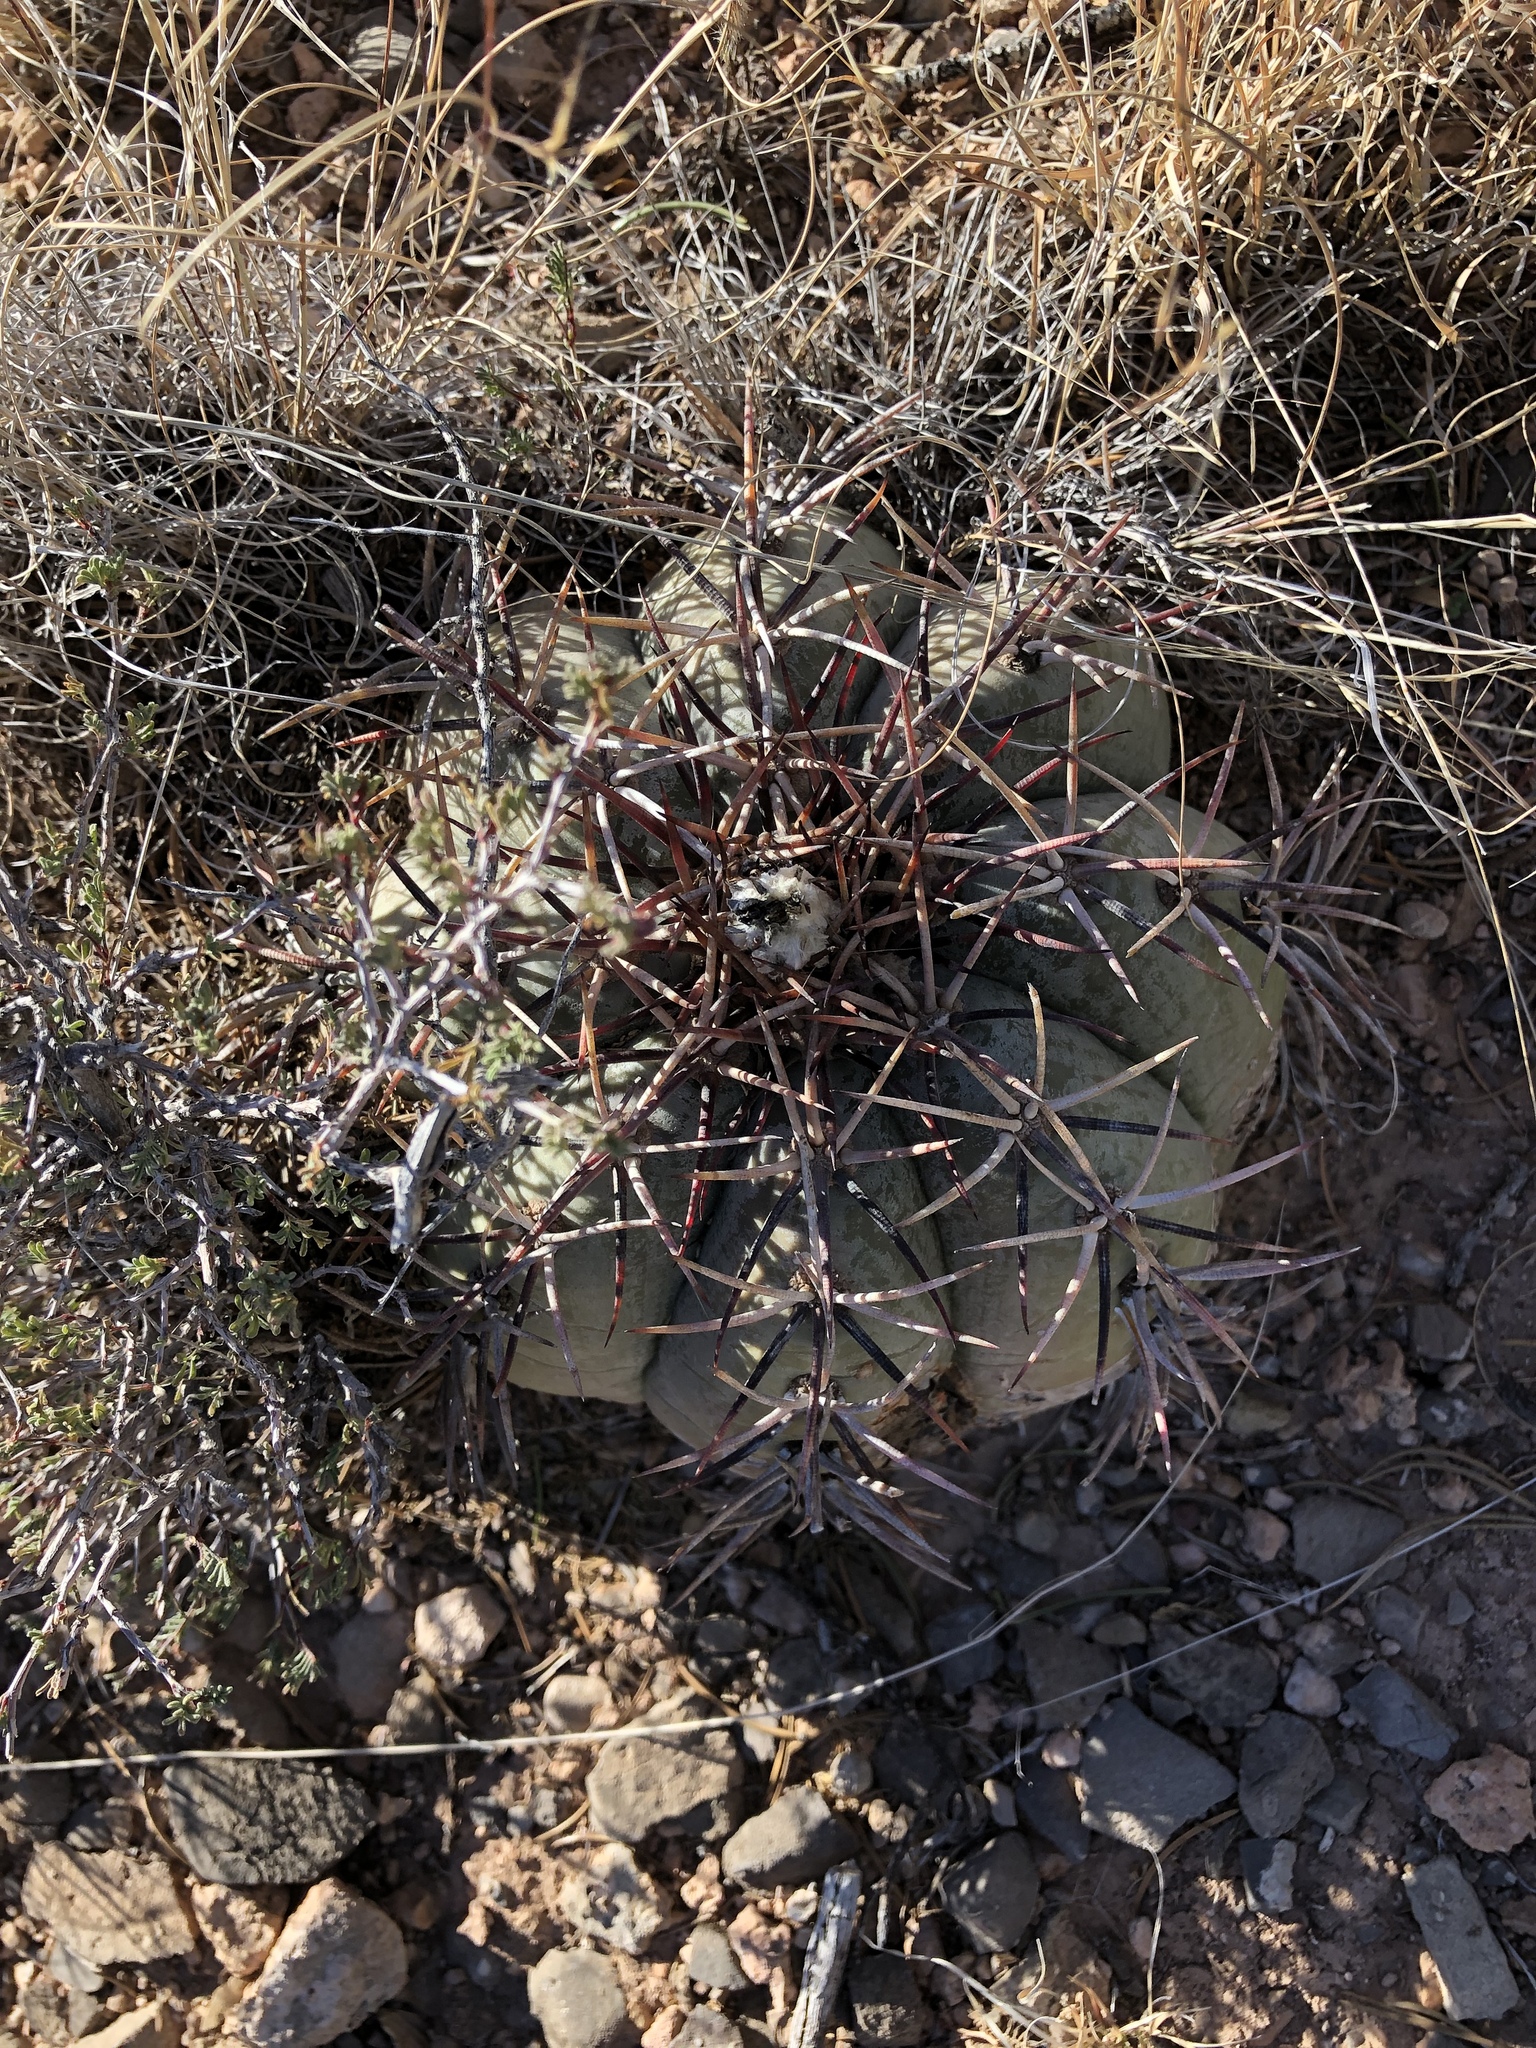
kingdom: Plantae
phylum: Tracheophyta
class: Magnoliopsida
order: Caryophyllales
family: Cactaceae
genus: Echinocactus
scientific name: Echinocactus horizonthalonius
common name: Devilshead
